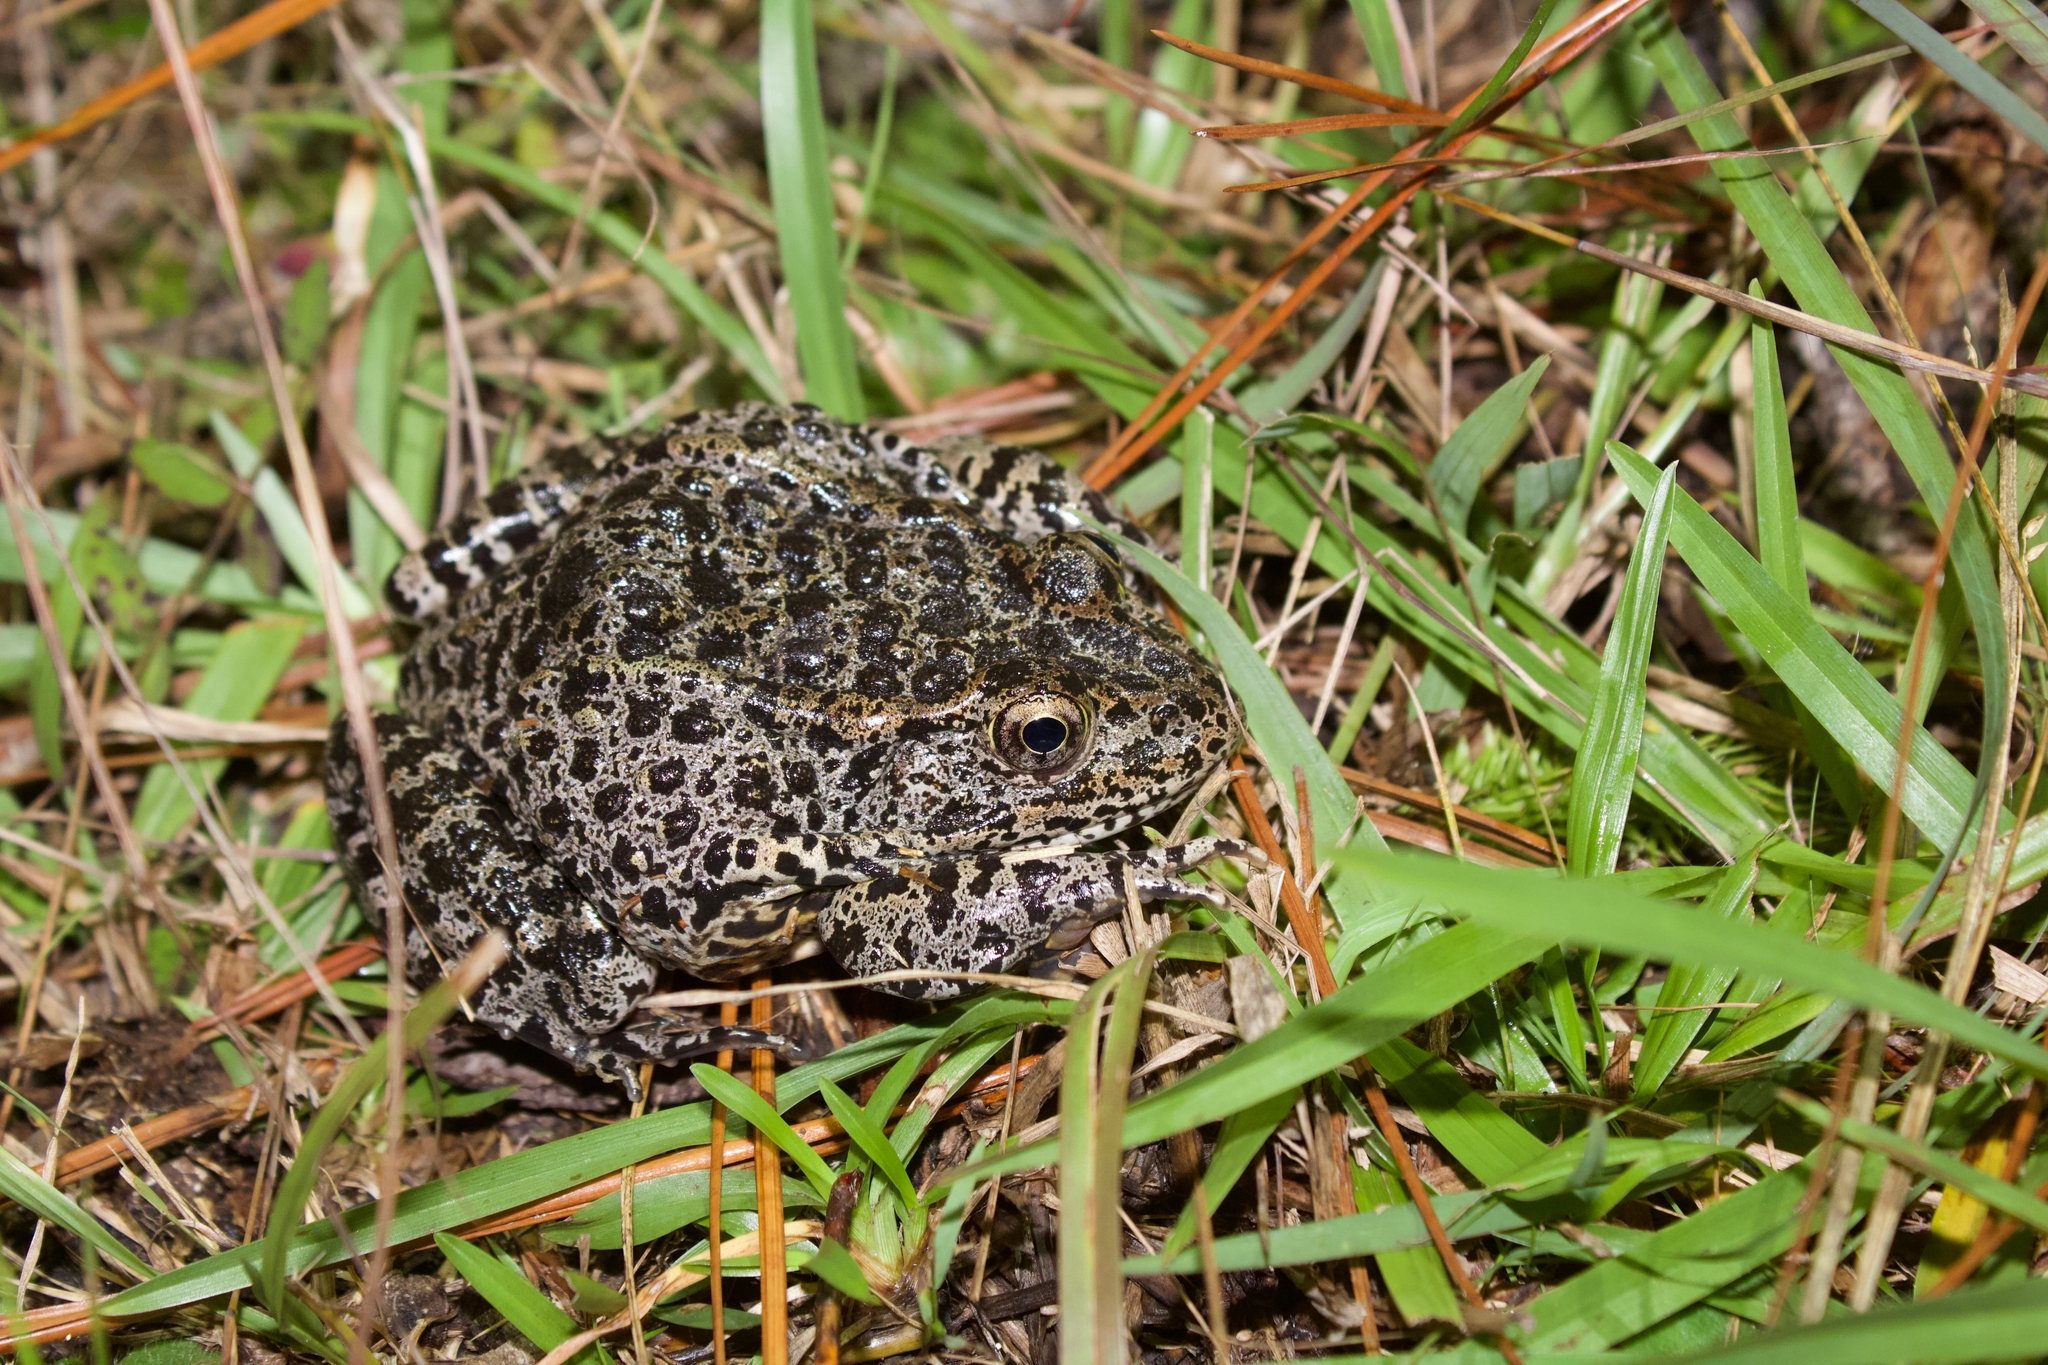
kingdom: Animalia
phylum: Chordata
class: Amphibia
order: Anura
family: Ranidae
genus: Lithobates
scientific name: Lithobates sevosus
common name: Dusky gopher frog
